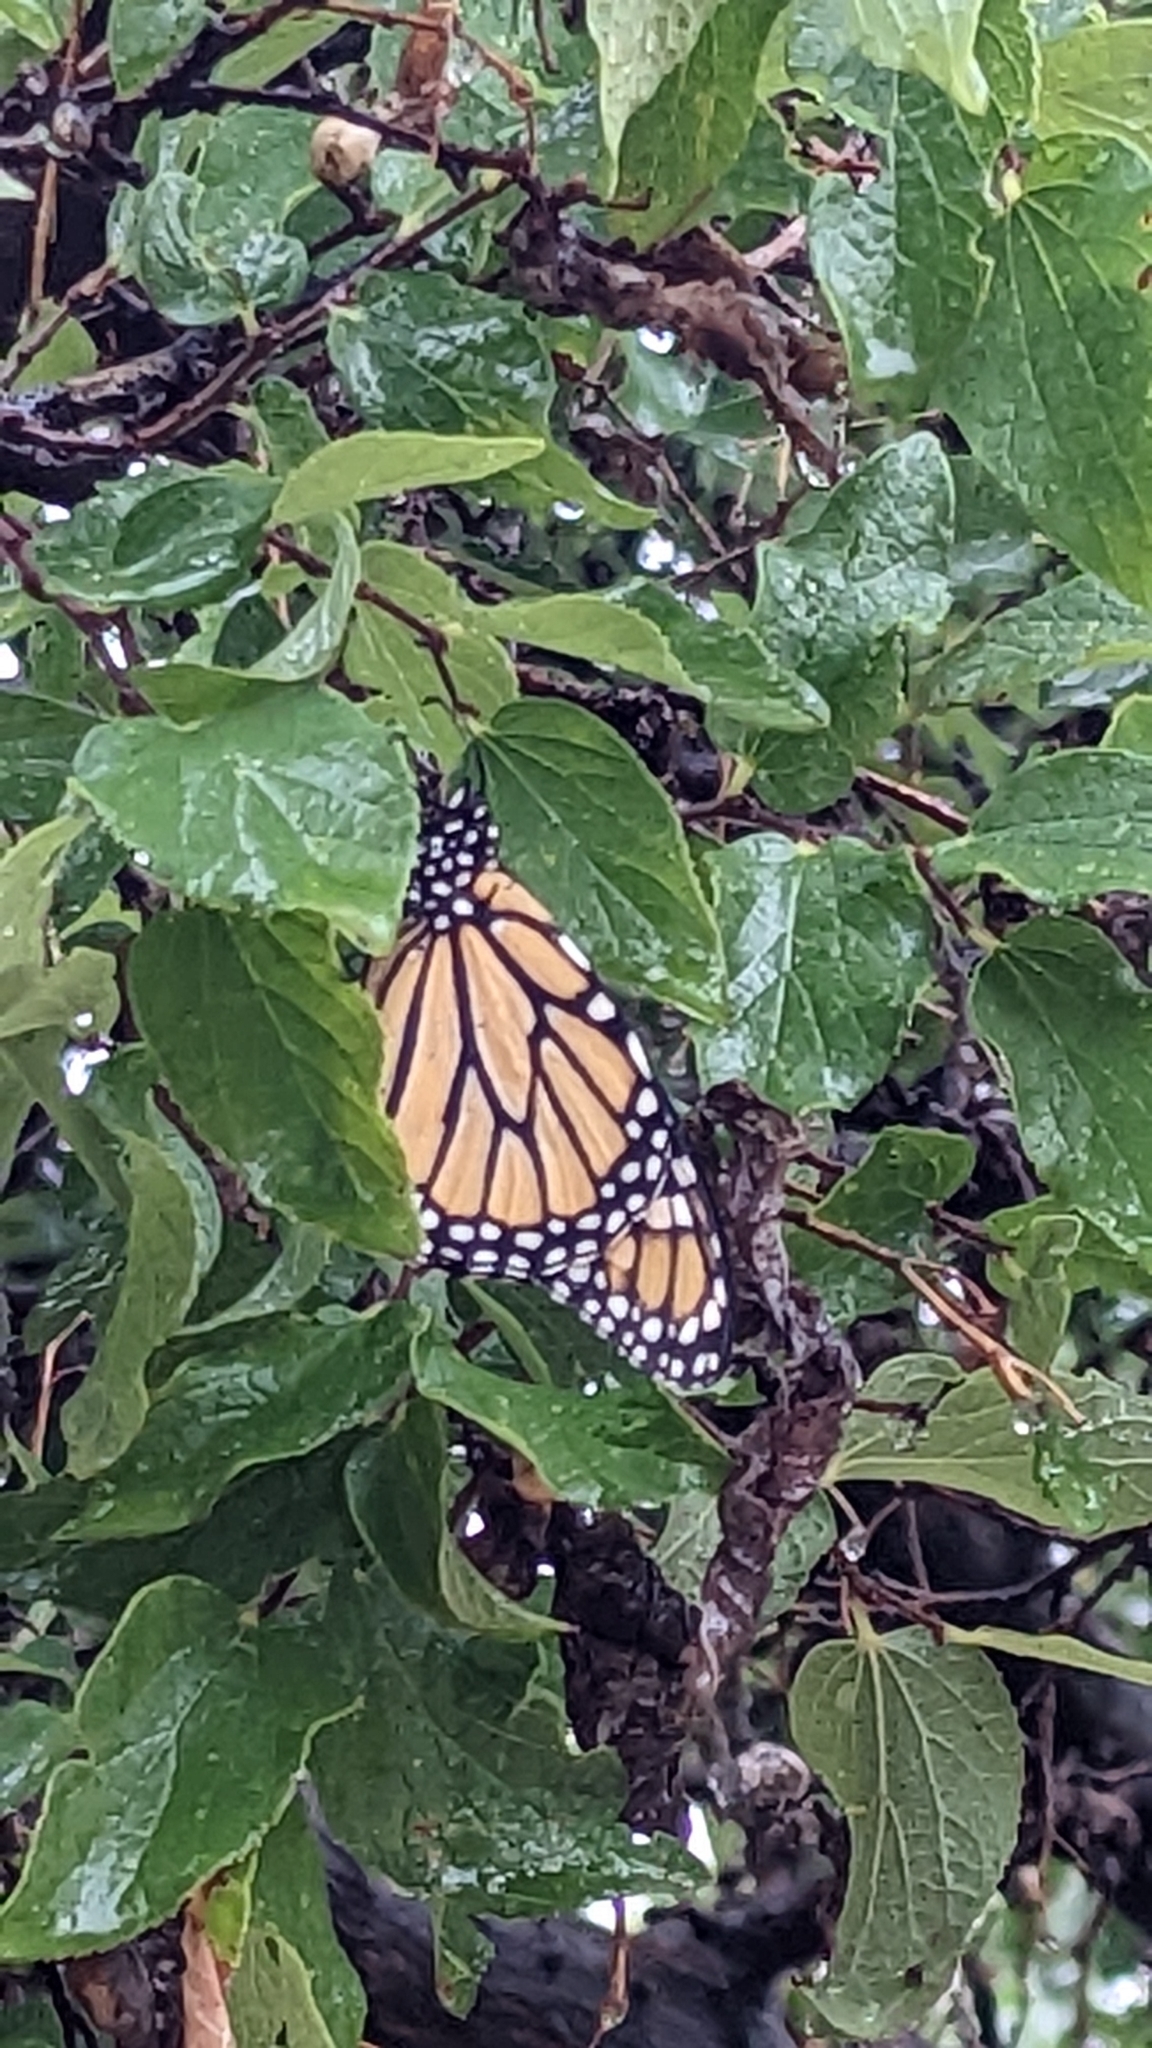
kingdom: Animalia
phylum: Arthropoda
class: Insecta
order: Lepidoptera
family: Nymphalidae
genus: Danaus
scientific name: Danaus plexippus
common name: Monarch
